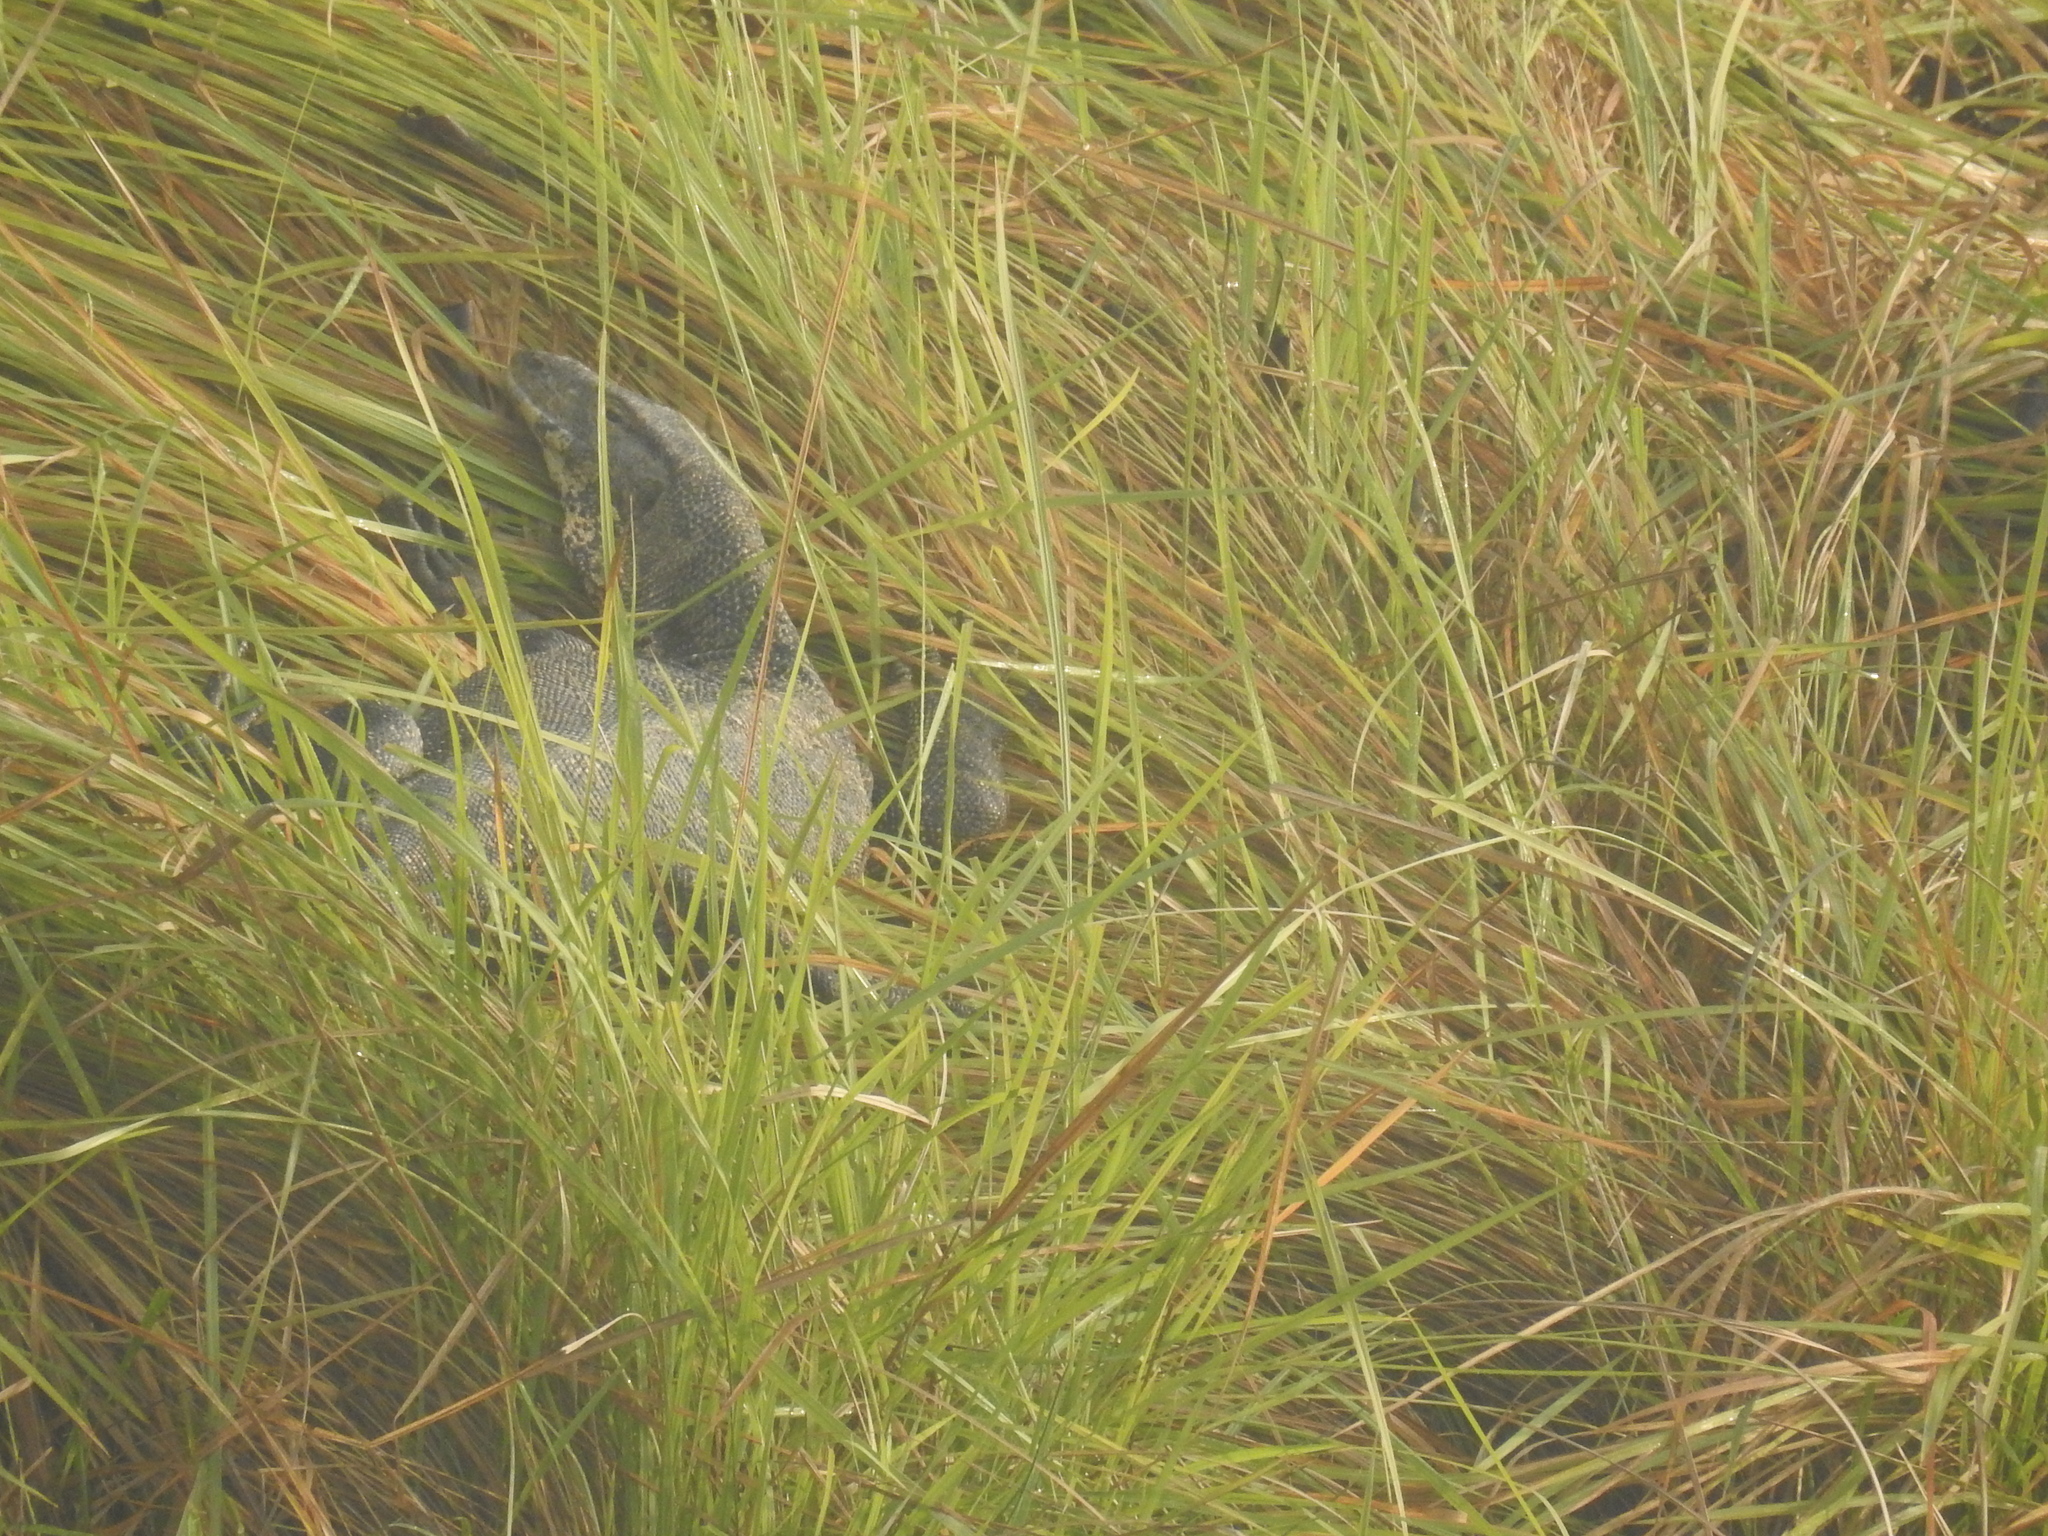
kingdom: Animalia
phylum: Chordata
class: Squamata
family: Varanidae
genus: Varanus
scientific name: Varanus salvator
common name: Common water monitor
